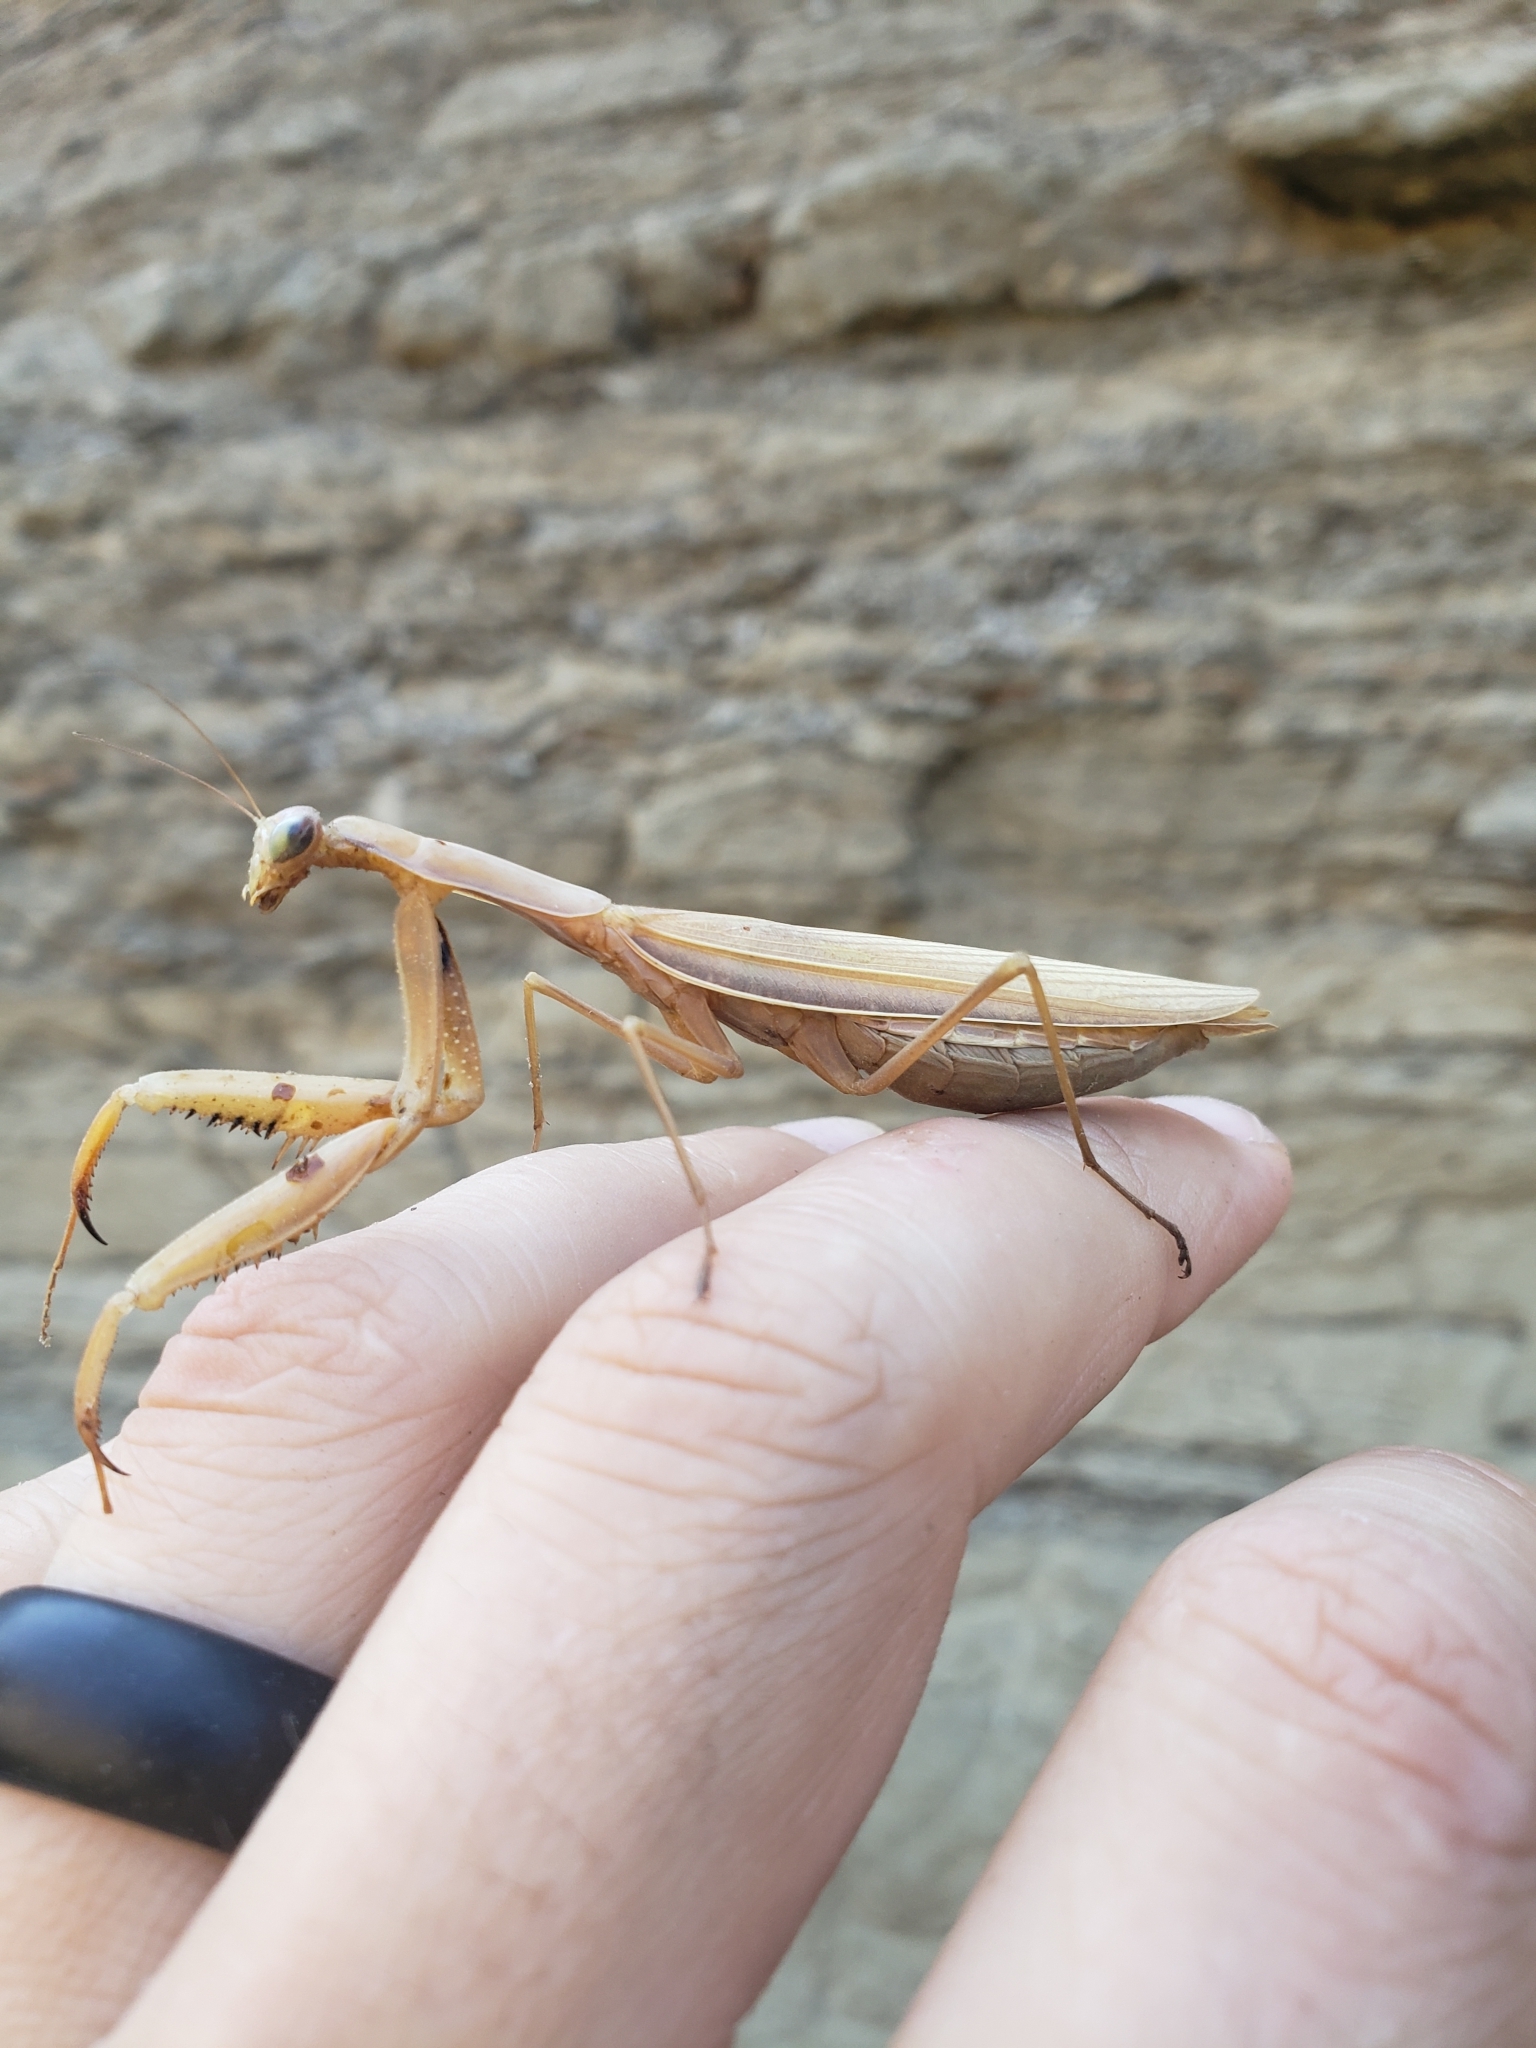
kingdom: Animalia
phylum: Arthropoda
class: Insecta
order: Mantodea
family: Mantidae
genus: Mantis
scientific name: Mantis religiosa
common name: Praying mantis
